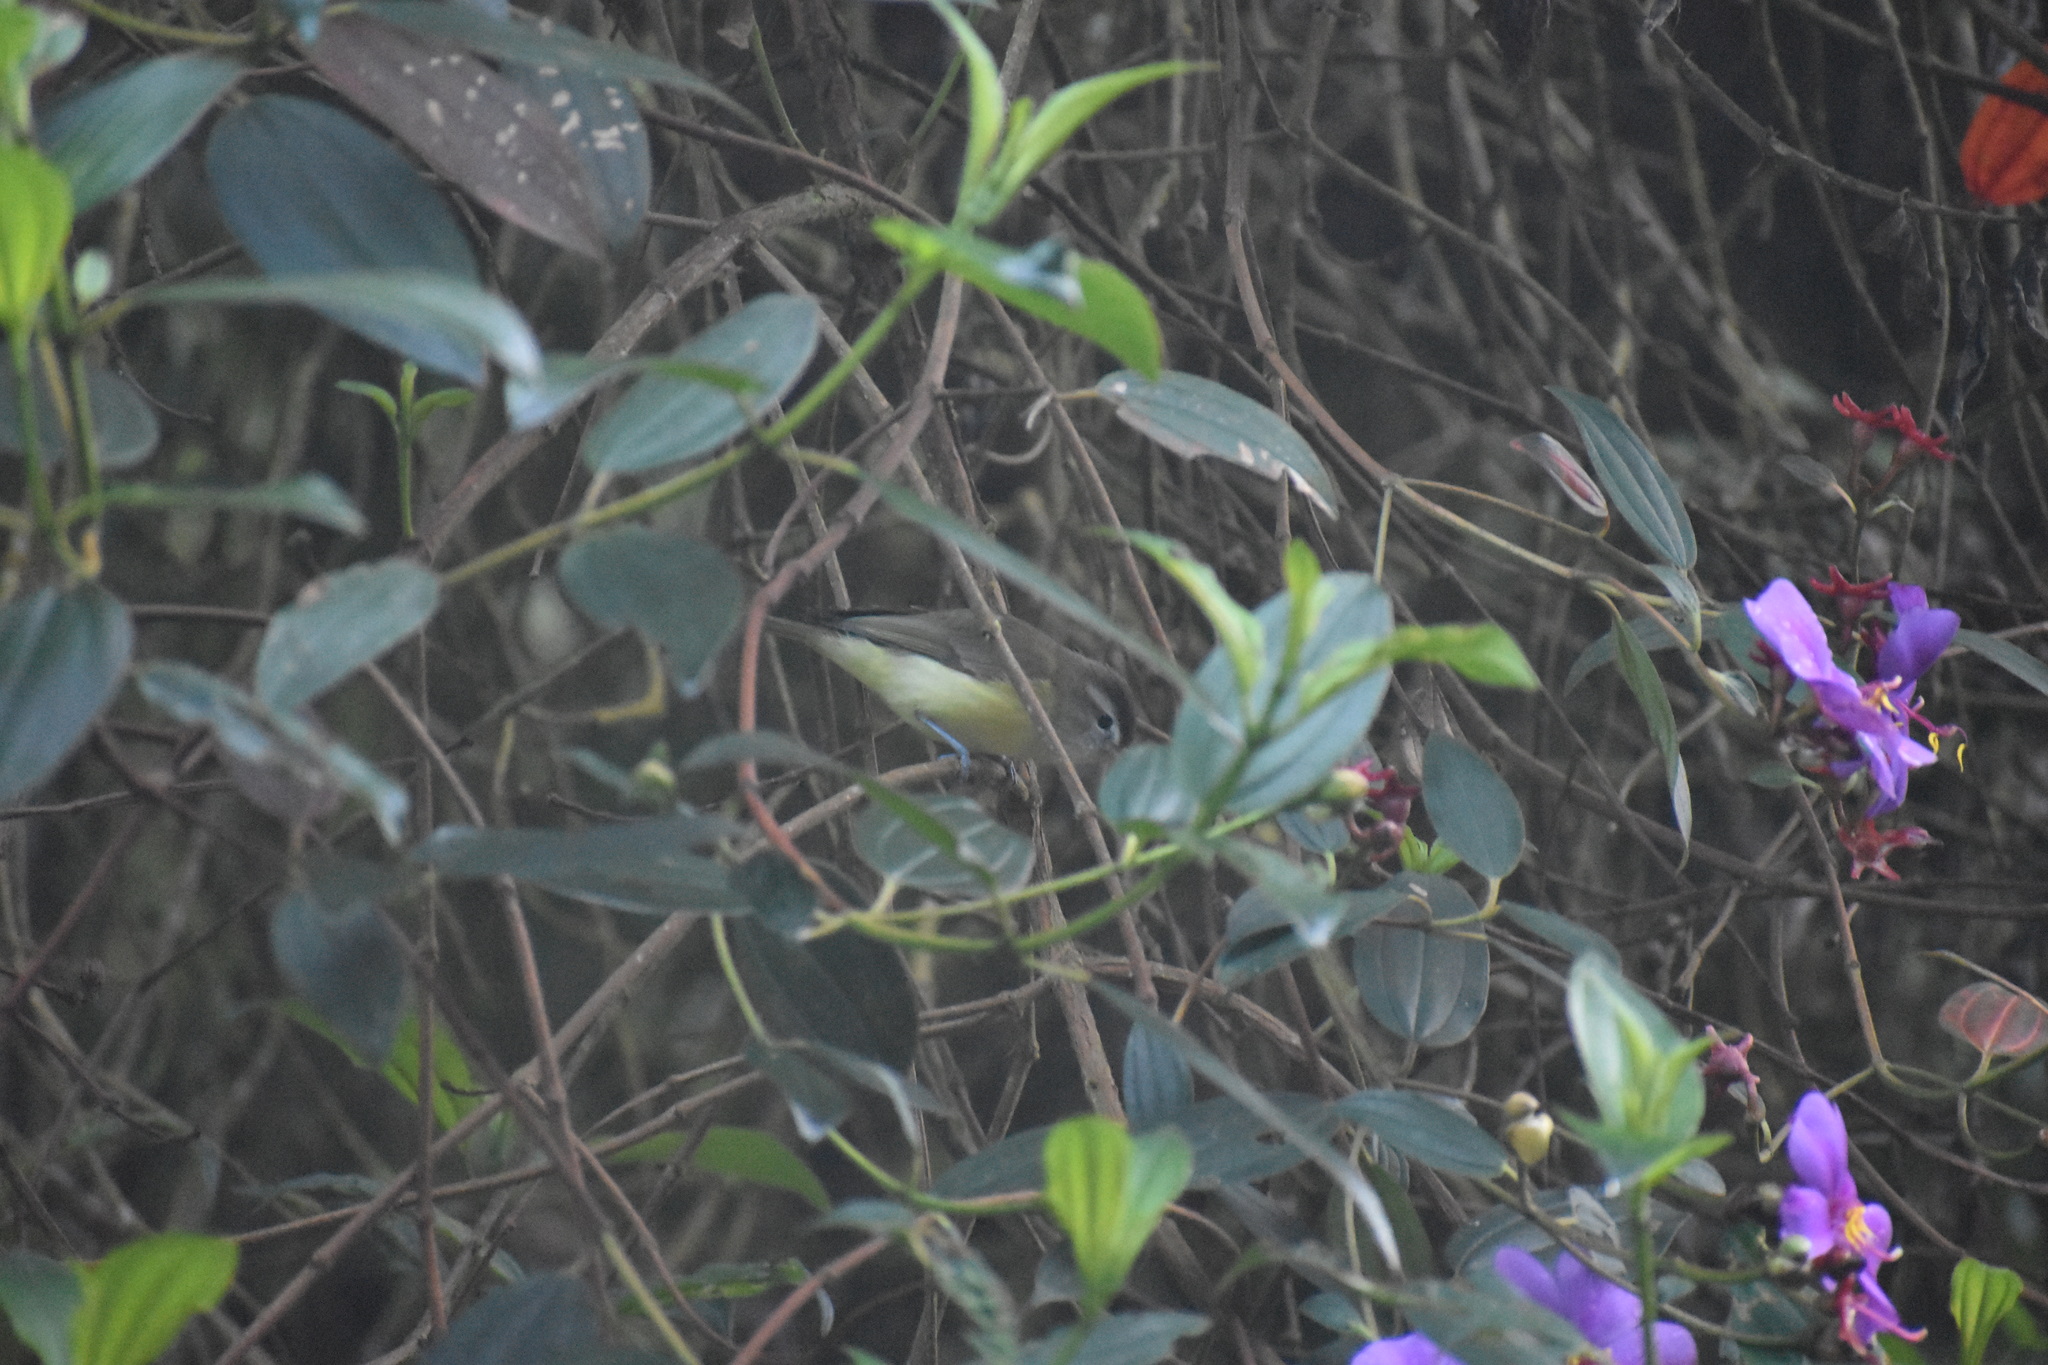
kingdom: Animalia
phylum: Chordata
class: Aves
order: Passeriformes
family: Vireonidae
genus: Vireo
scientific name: Vireo leucophrys
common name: Brown-capped vireo
